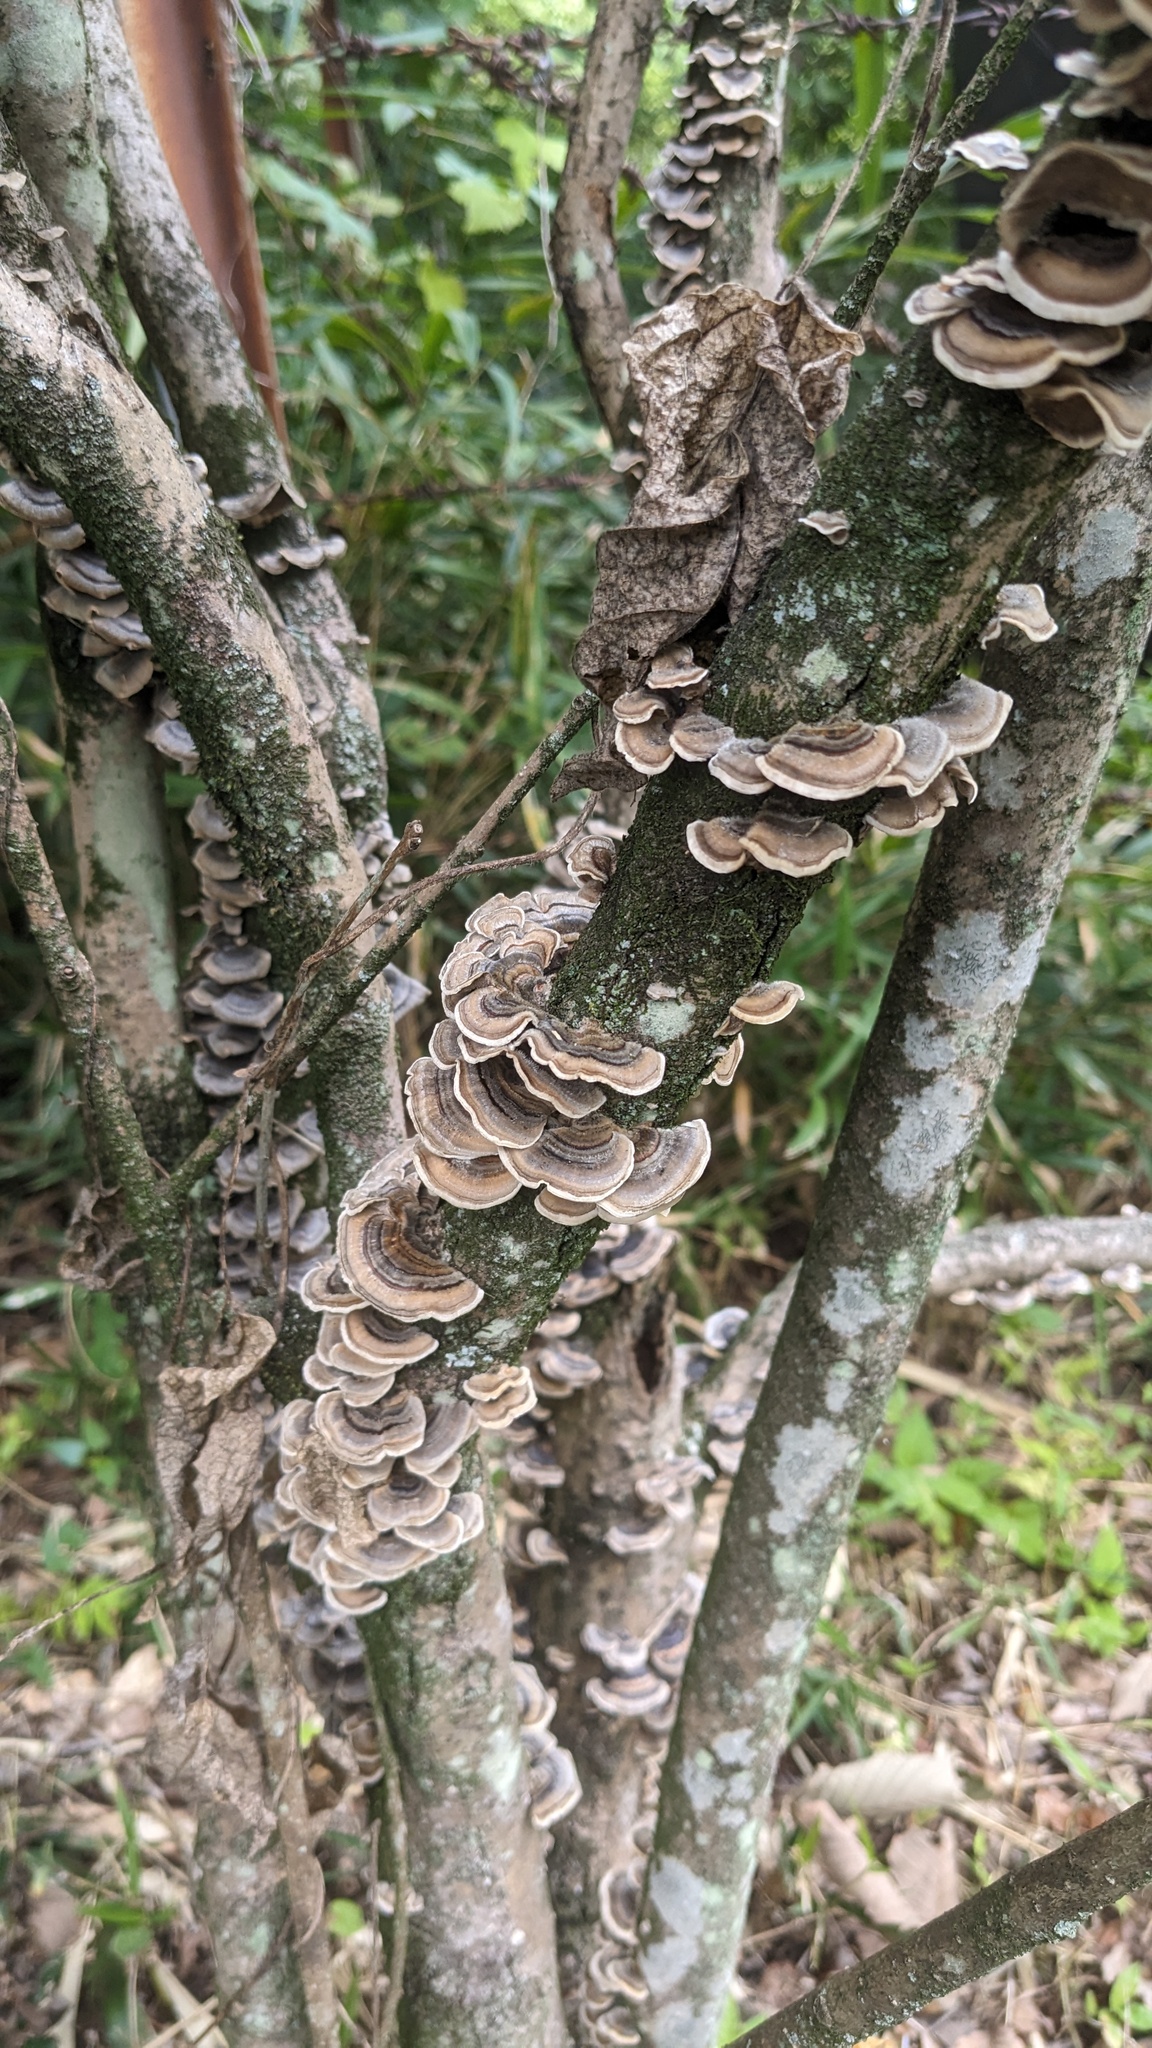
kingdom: Fungi
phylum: Basidiomycota
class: Agaricomycetes
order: Polyporales
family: Polyporaceae
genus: Trametes
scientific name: Trametes versicolor
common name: Turkeytail
